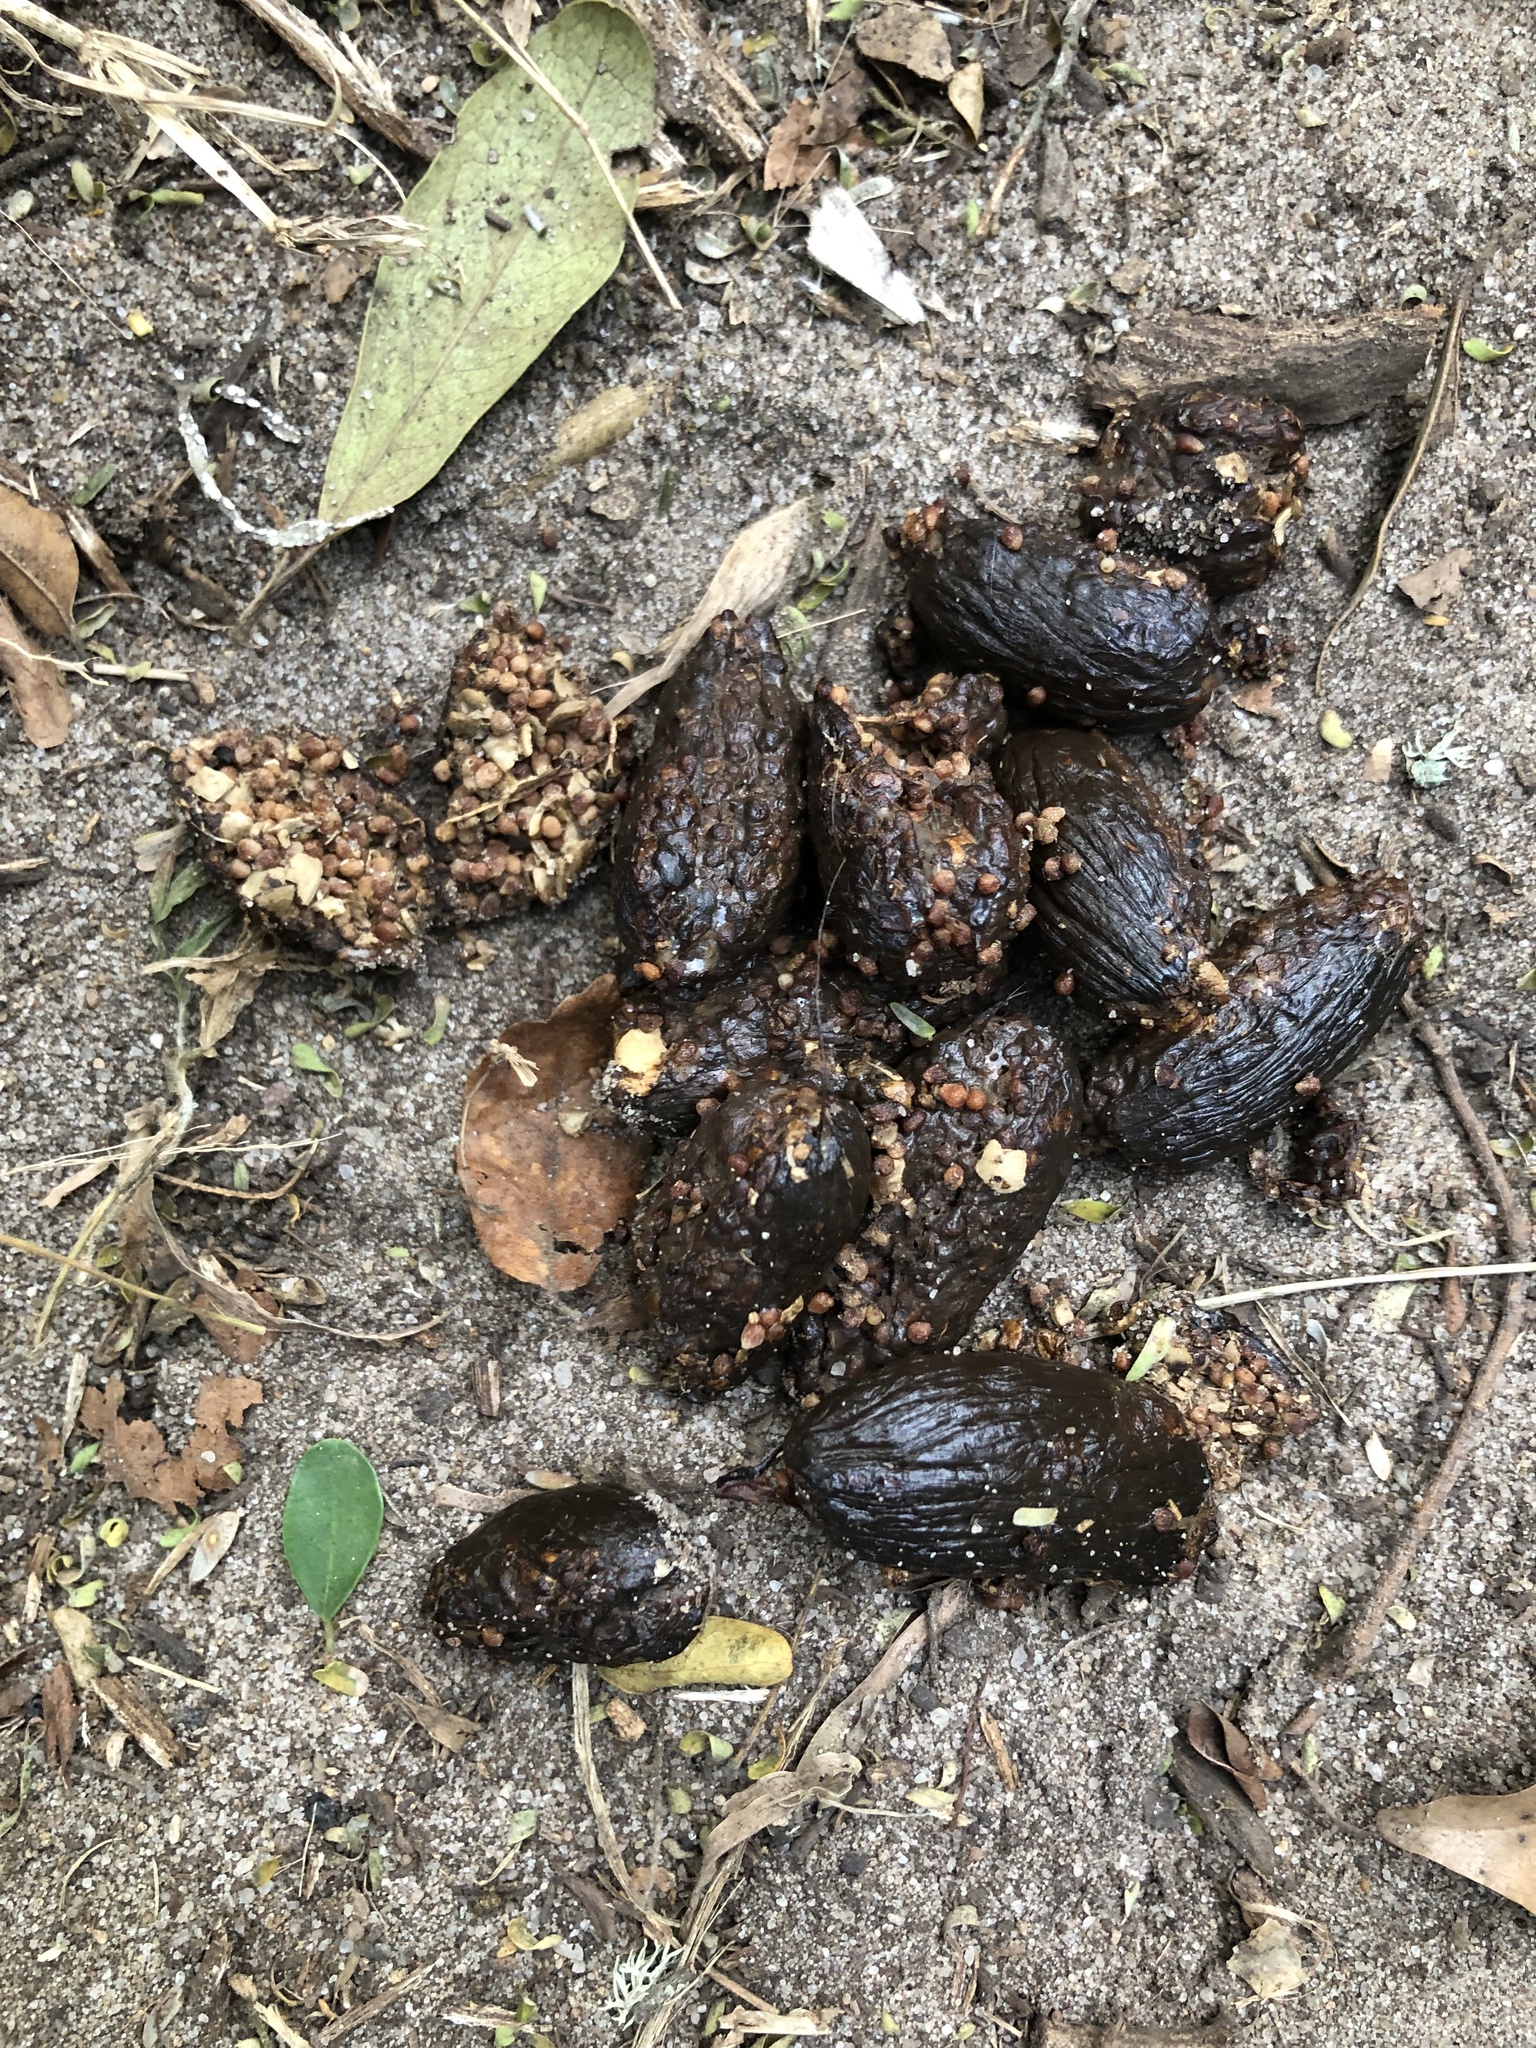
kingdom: Animalia
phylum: Chordata
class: Mammalia
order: Rodentia
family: Hystricidae
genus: Hystrix
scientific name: Hystrix africaeaustralis
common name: Cape porcupine
